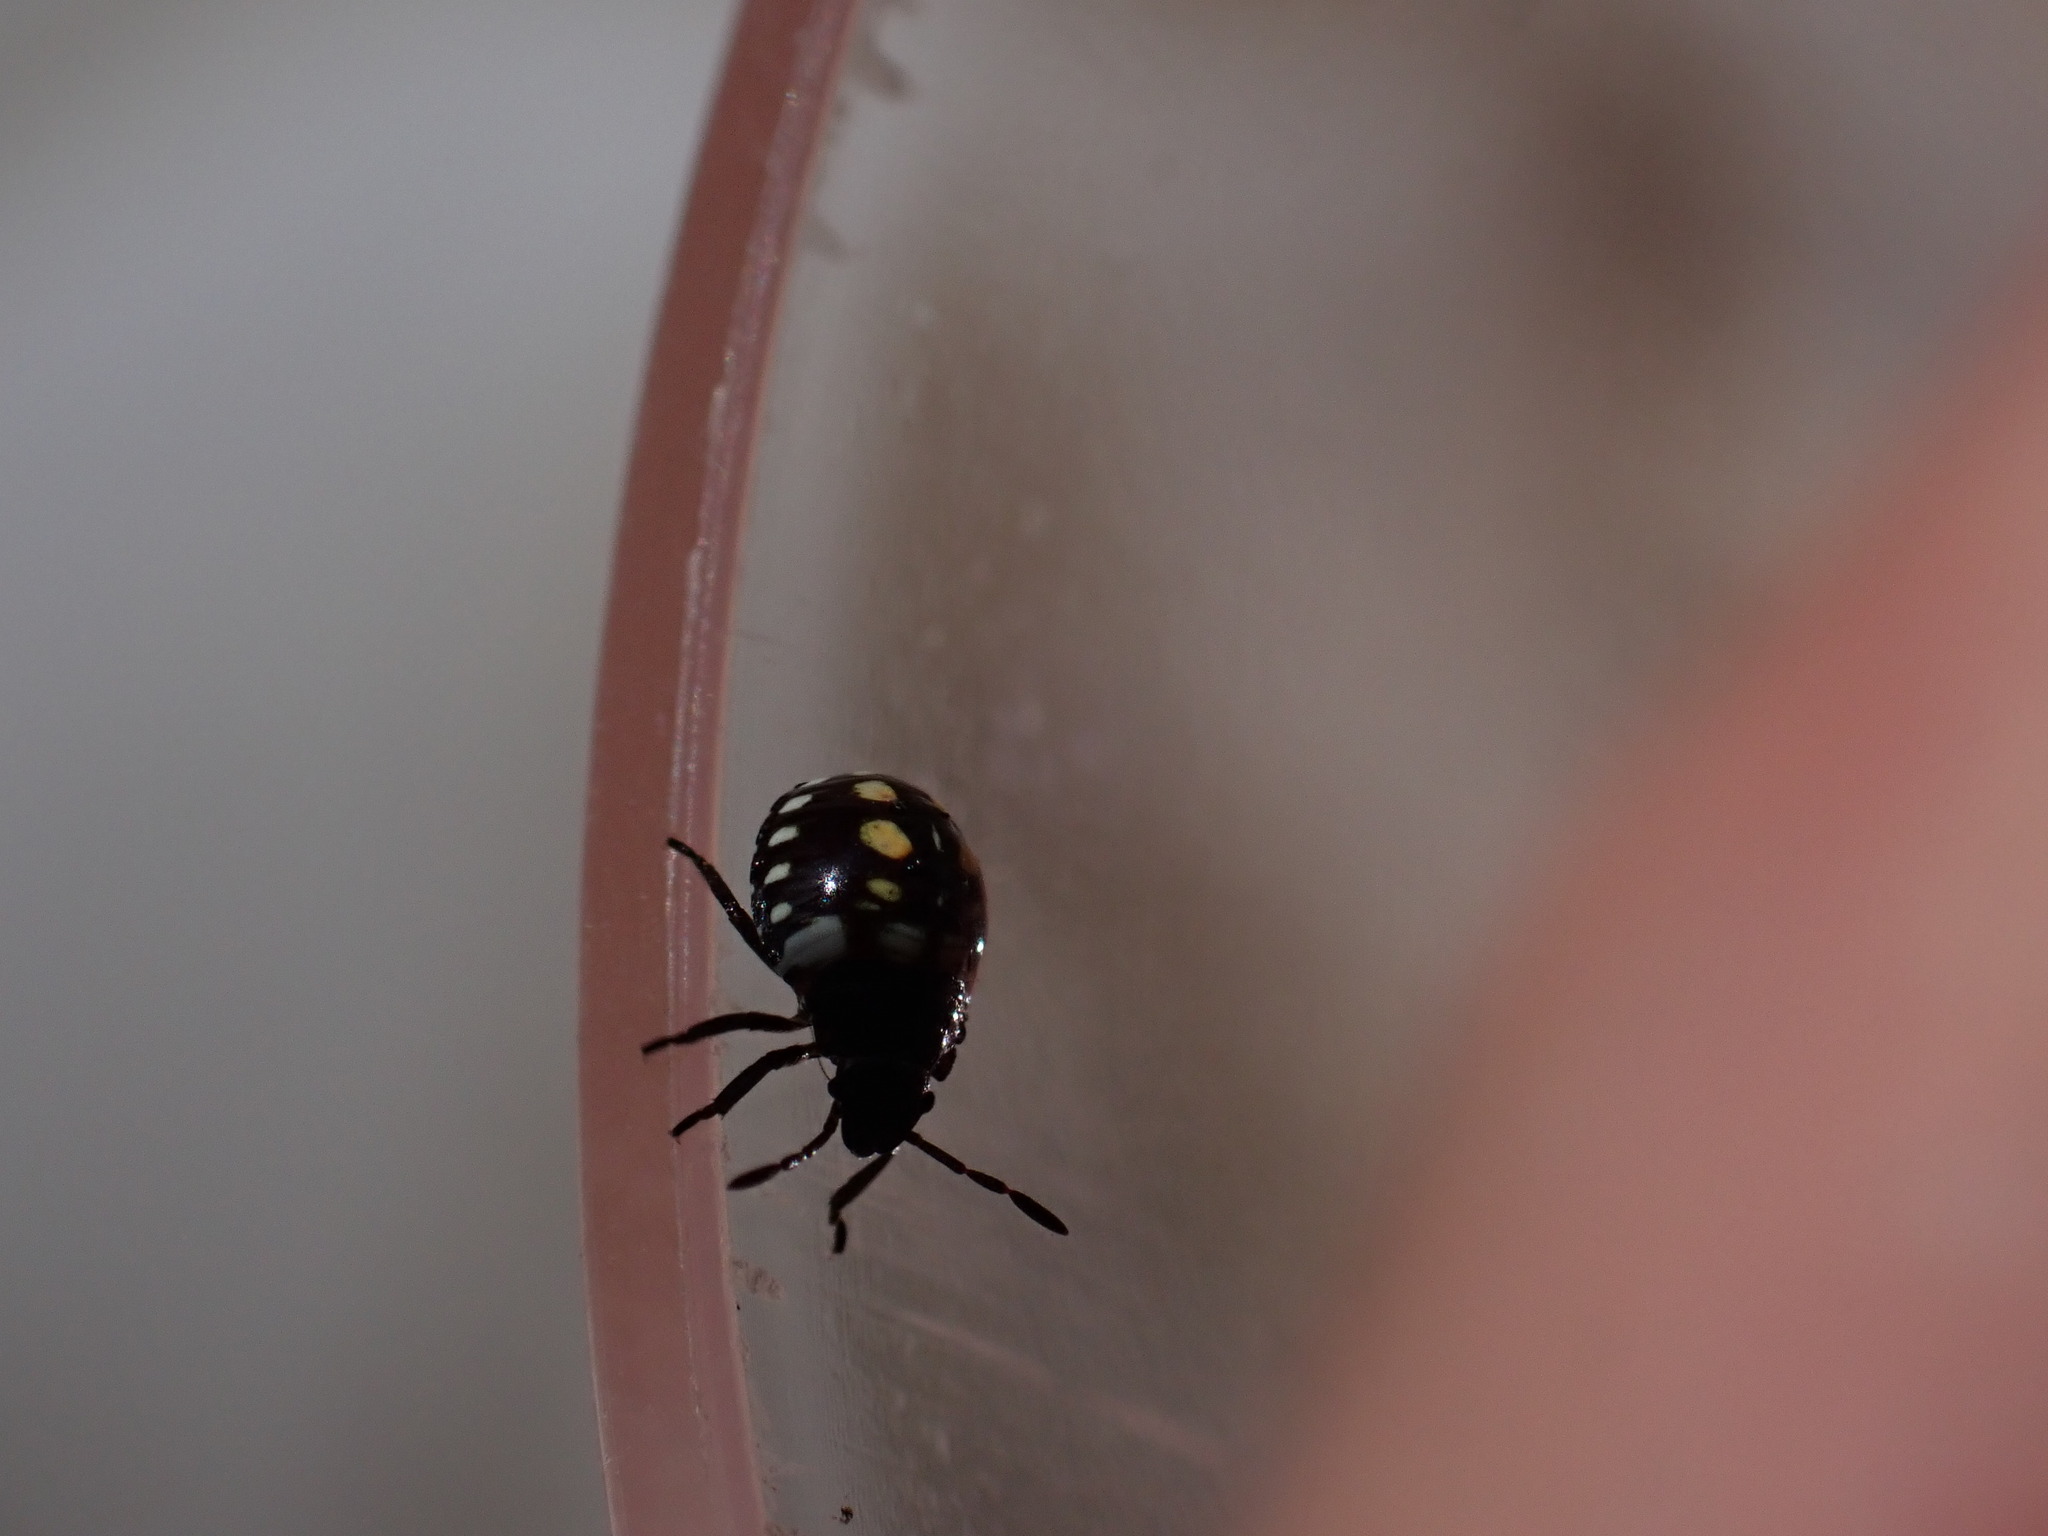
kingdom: Animalia
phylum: Arthropoda
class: Insecta
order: Hemiptera
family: Pentatomidae
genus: Nezara
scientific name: Nezara viridula
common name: Southern green stink bug
